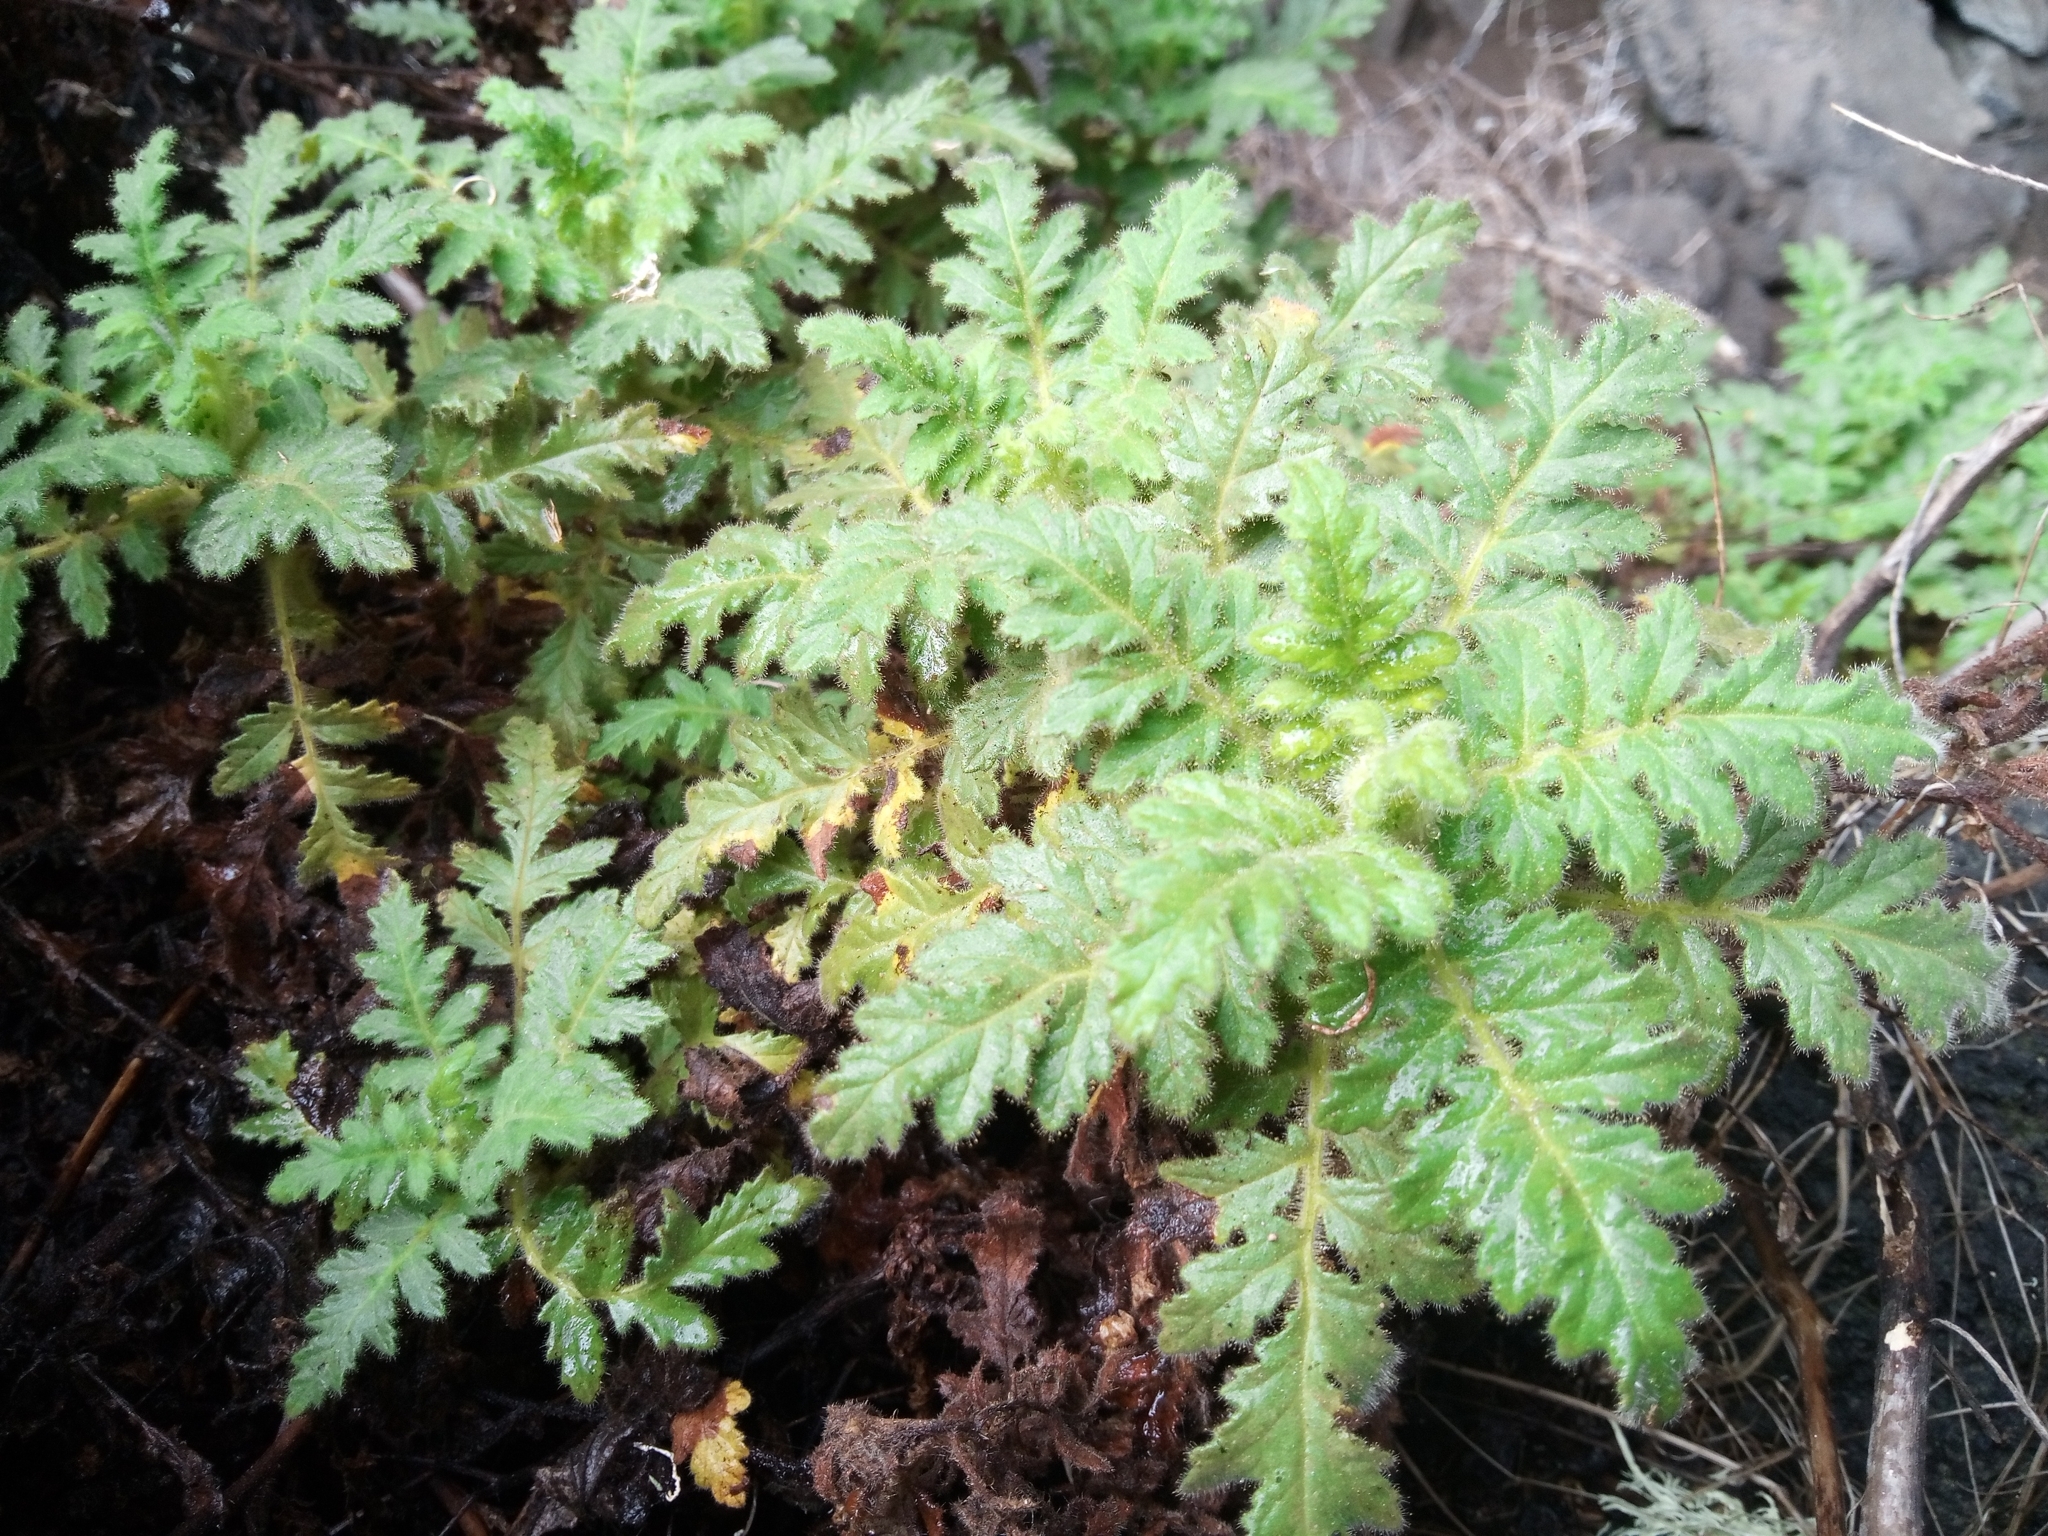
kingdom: Plantae
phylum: Tracheophyta
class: Magnoliopsida
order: Boraginales
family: Hydrophyllaceae
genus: Phacelia
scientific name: Phacelia ixodes
